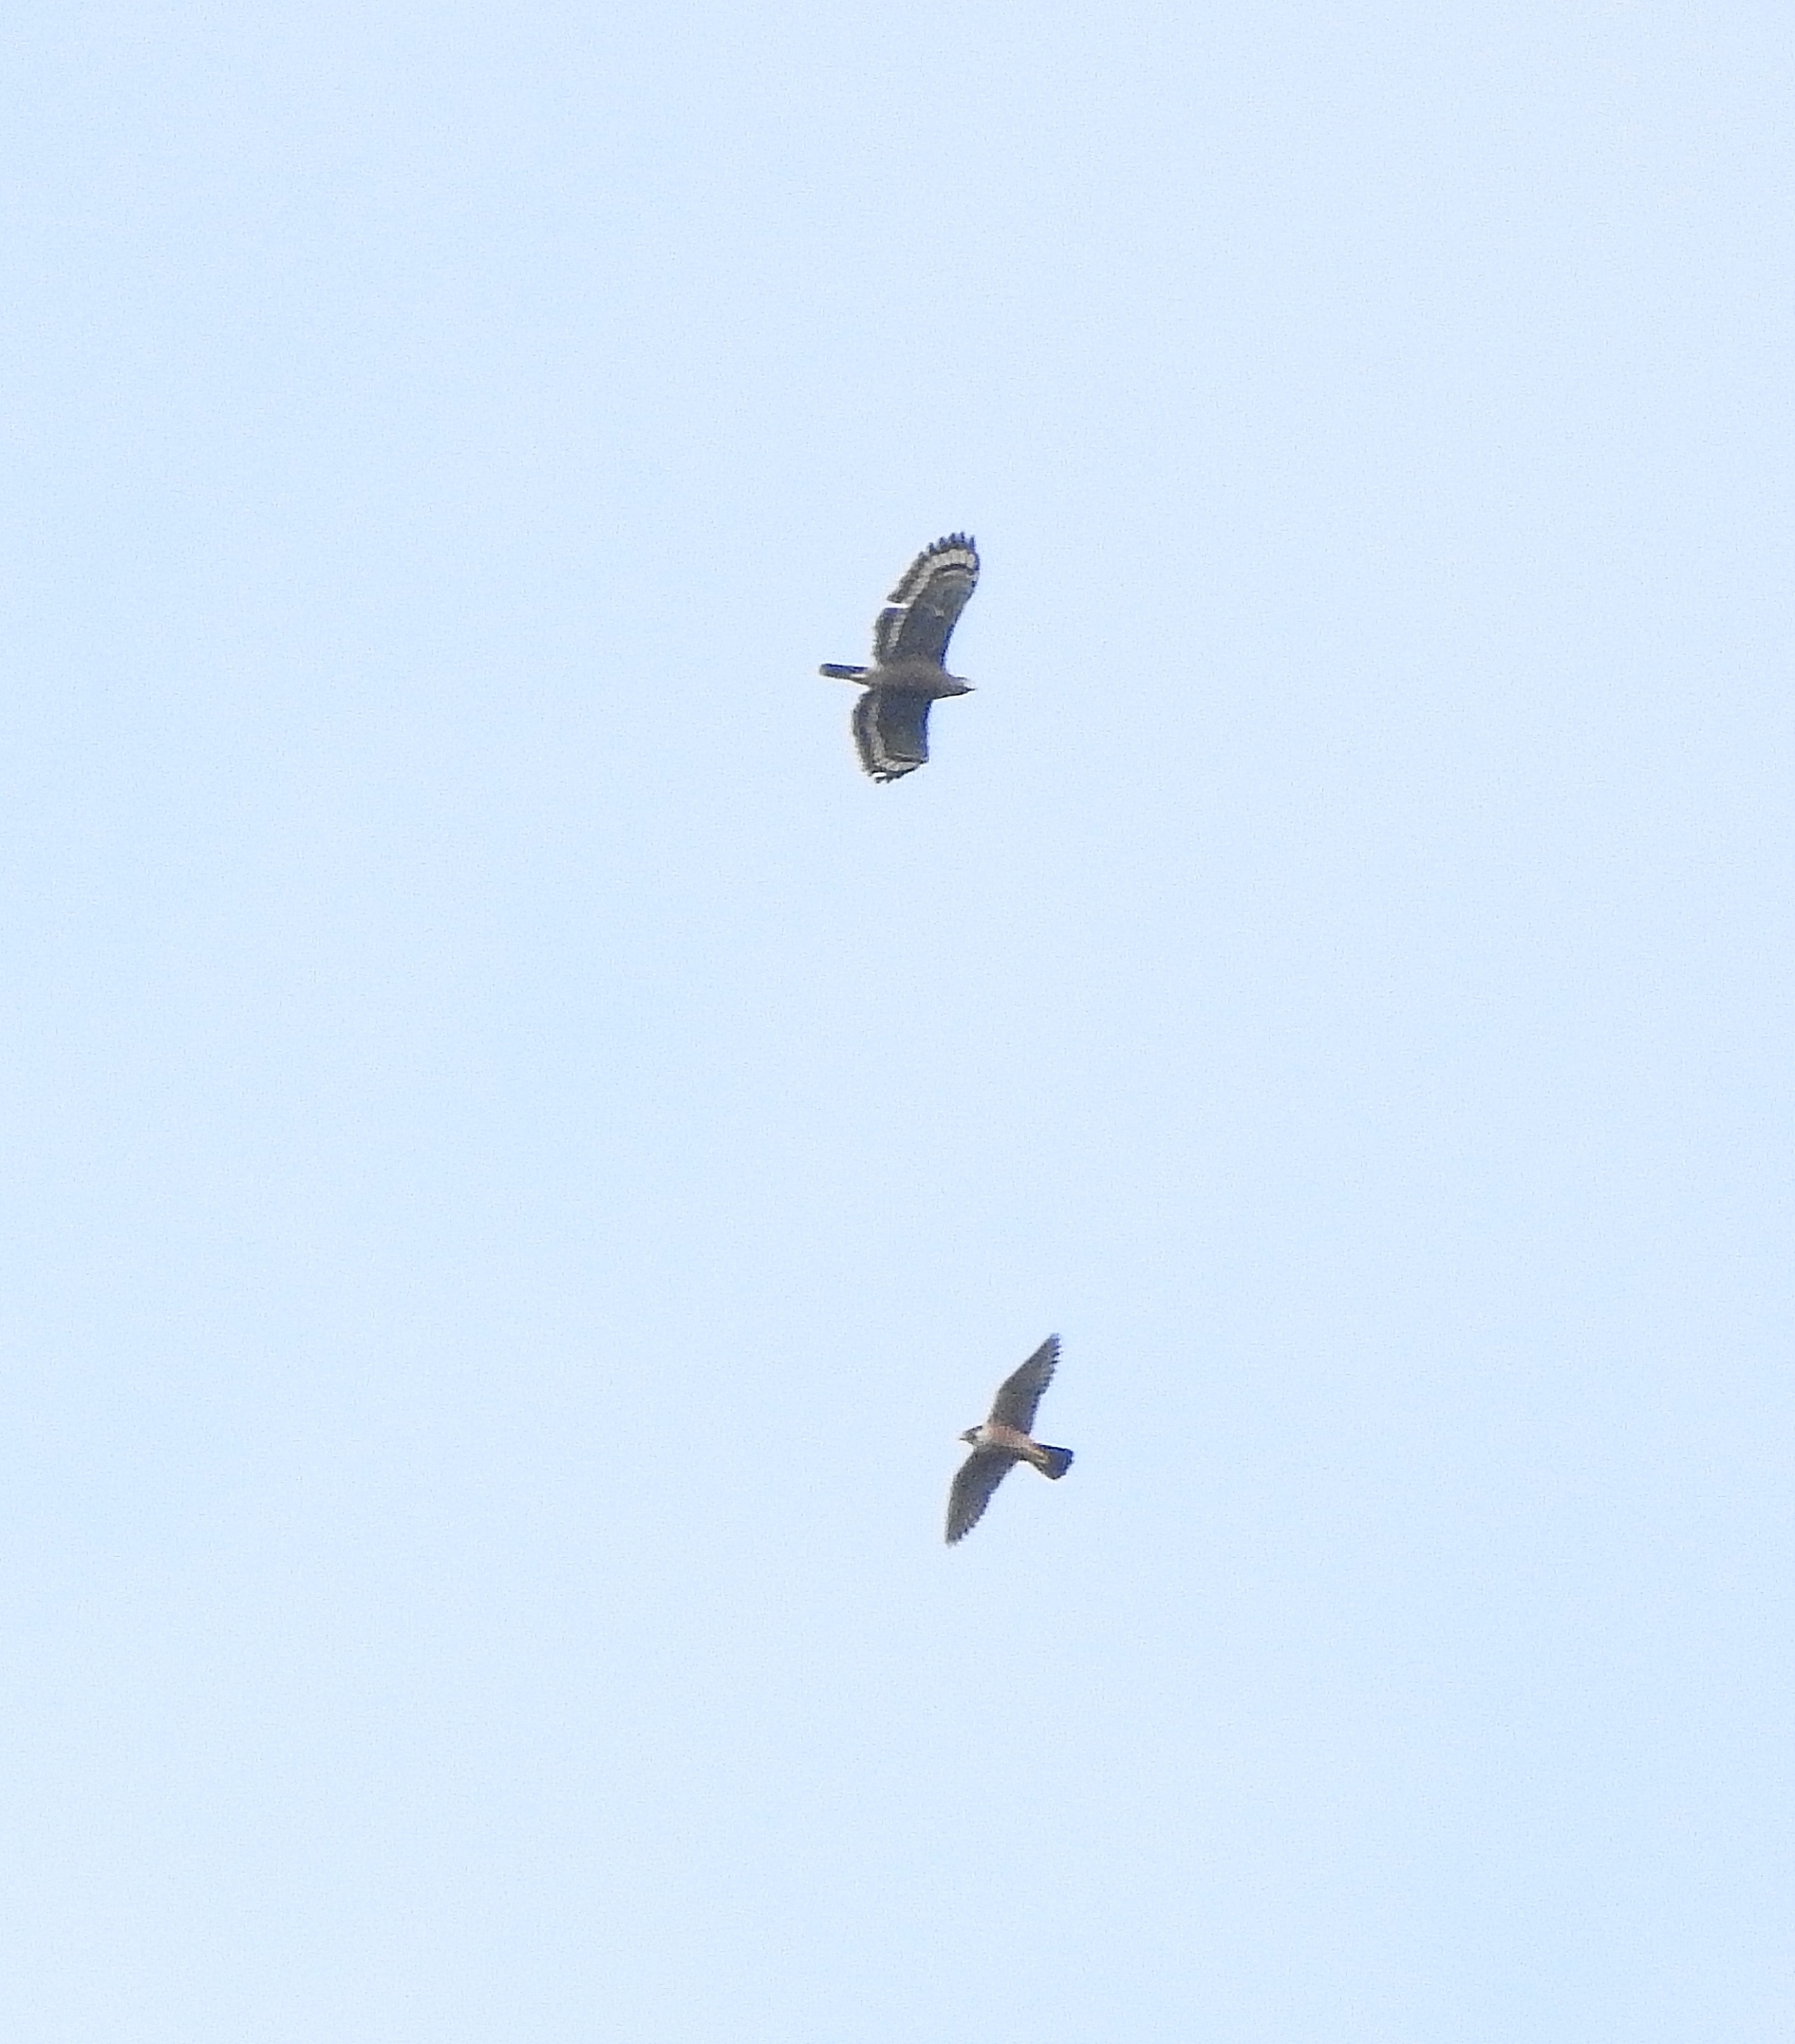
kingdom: Animalia
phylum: Chordata
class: Aves
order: Falconiformes
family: Falconidae
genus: Falco
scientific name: Falco peregrinus
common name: Peregrine falcon
